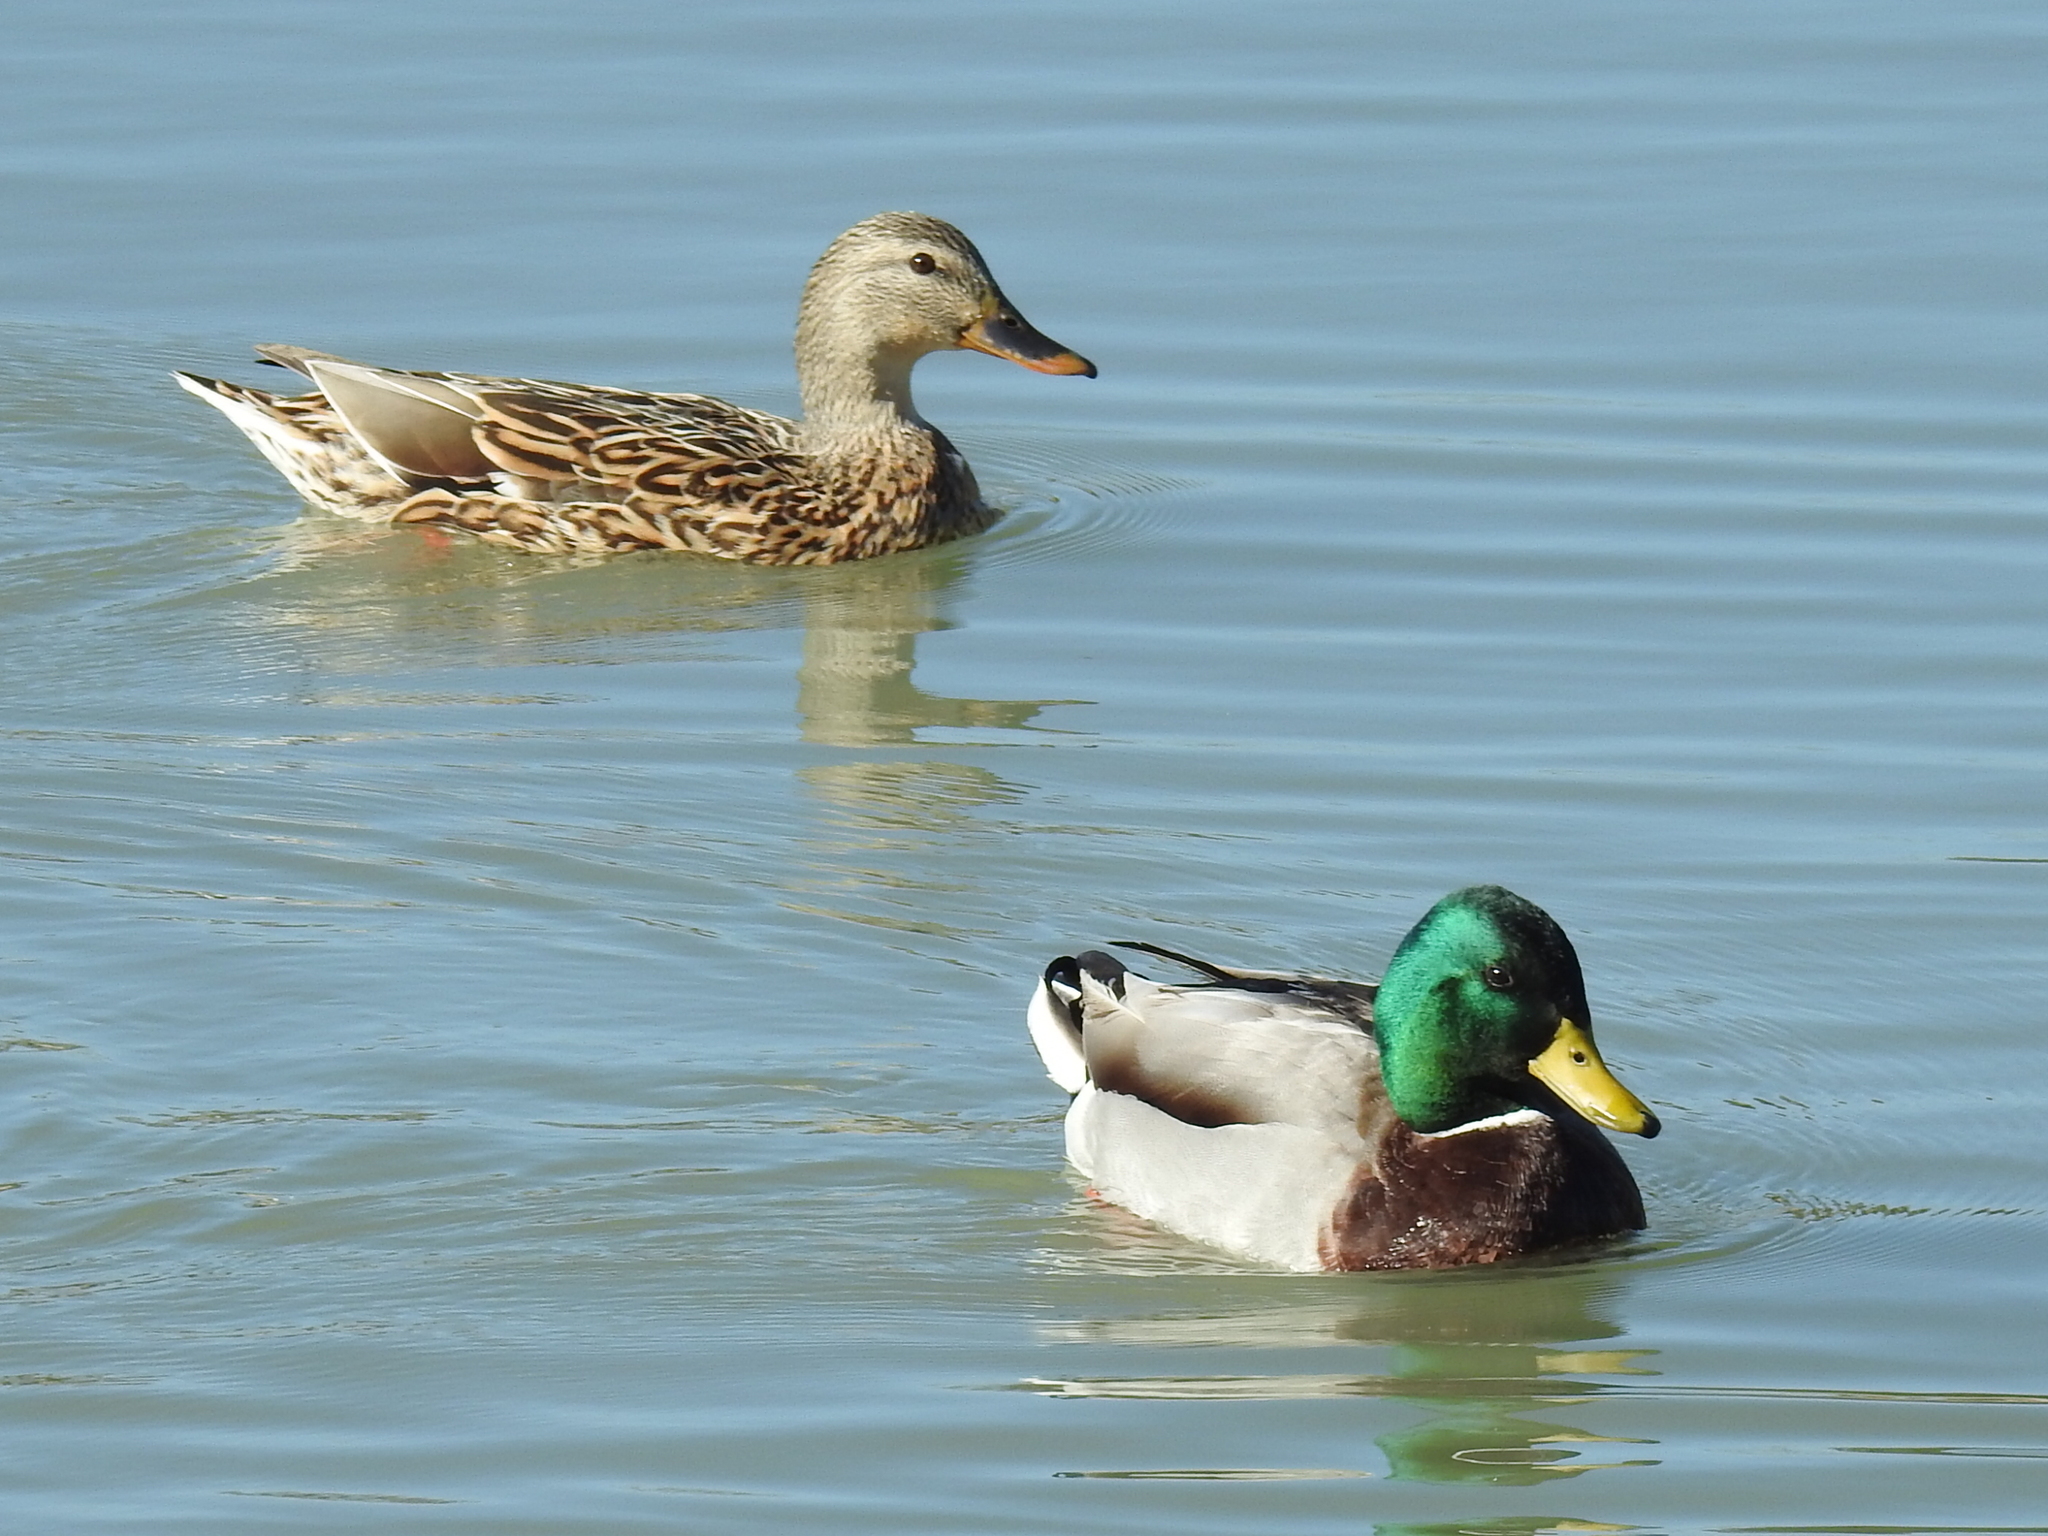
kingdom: Animalia
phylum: Chordata
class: Aves
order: Anseriformes
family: Anatidae
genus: Anas
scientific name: Anas platyrhynchos
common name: Mallard
